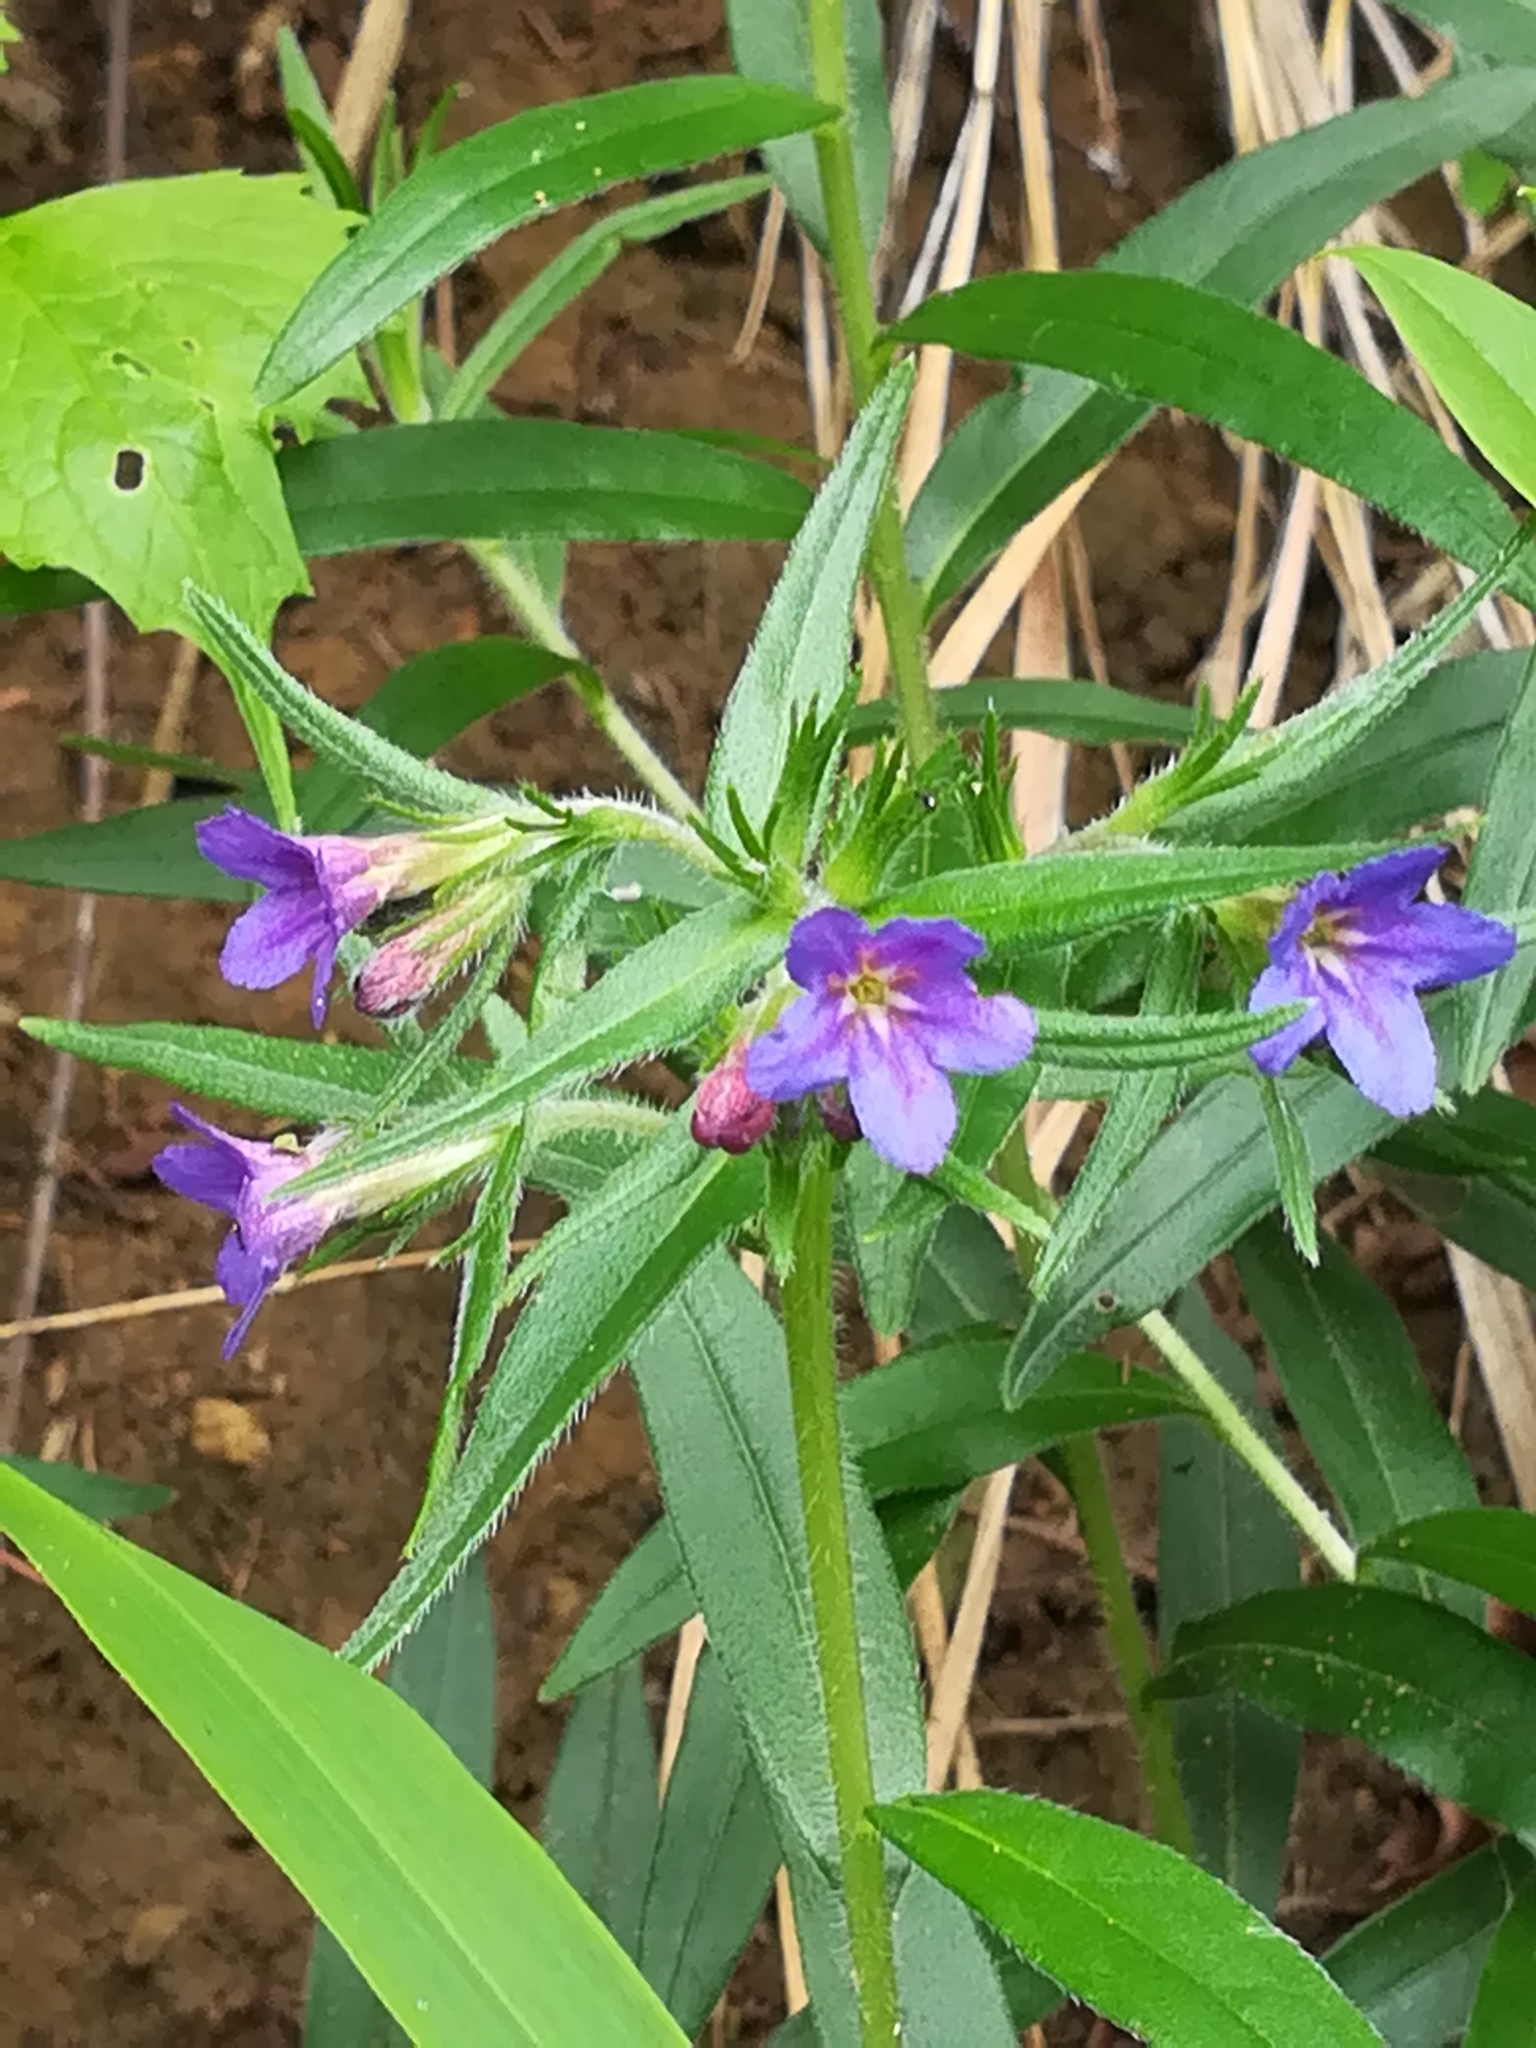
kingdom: Plantae
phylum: Tracheophyta
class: Magnoliopsida
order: Boraginales
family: Boraginaceae
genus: Aegonychon
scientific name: Aegonychon purpurocaeruleum
